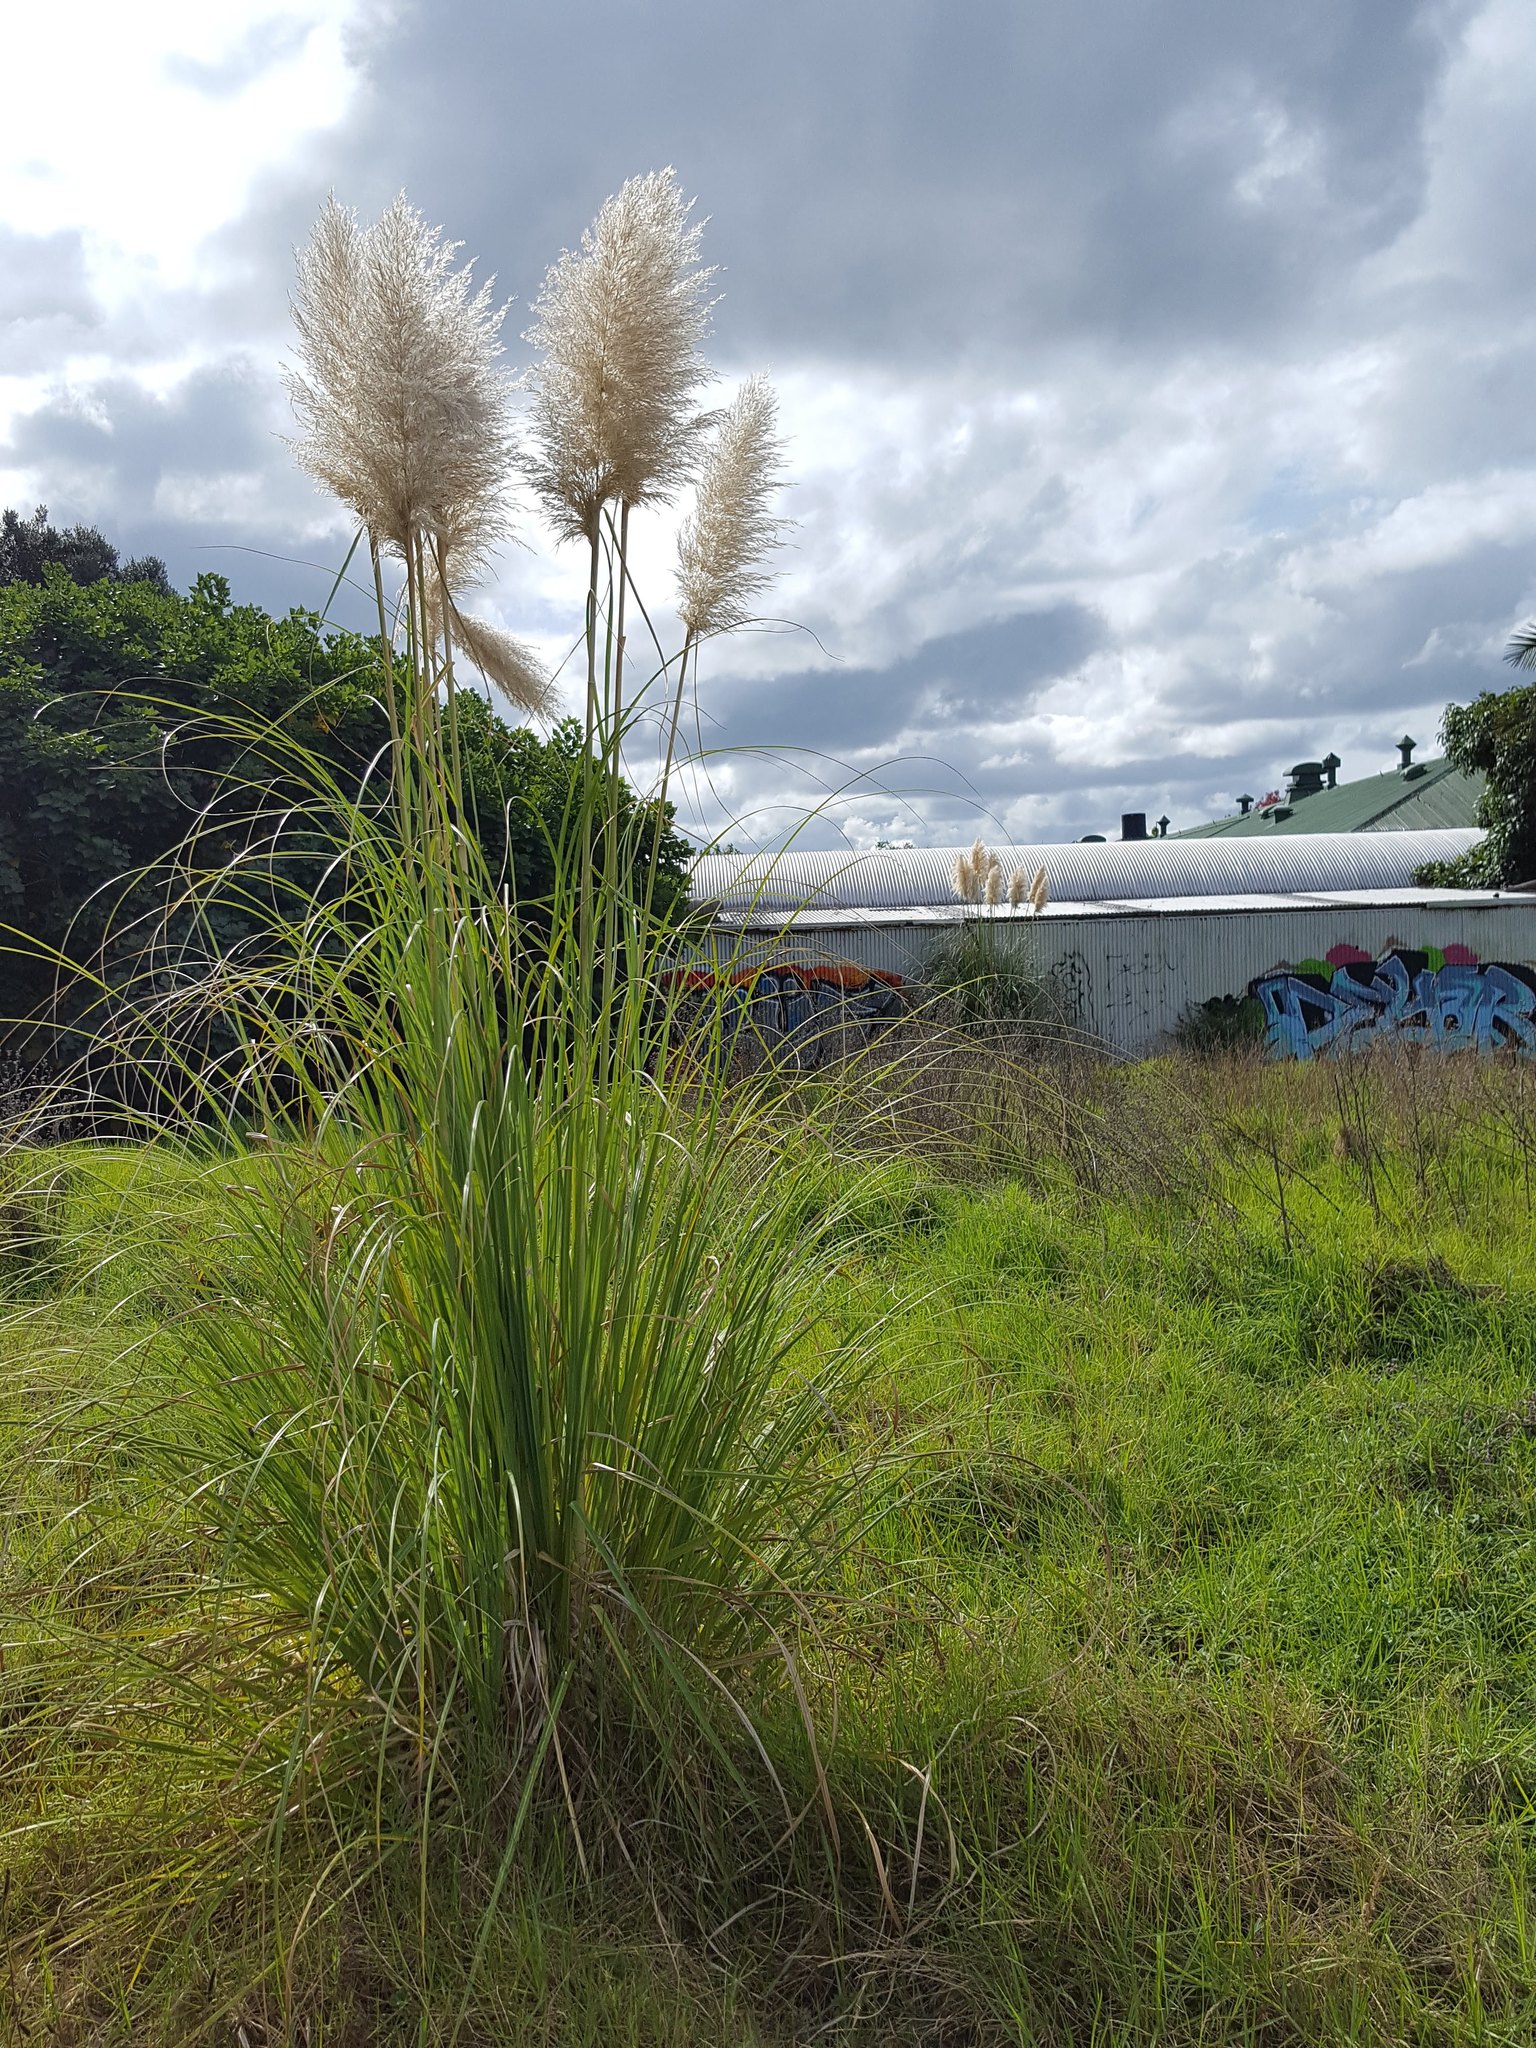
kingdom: Plantae
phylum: Tracheophyta
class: Liliopsida
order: Poales
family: Poaceae
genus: Cortaderia
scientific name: Cortaderia selloana
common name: Uruguayan pampas grass
